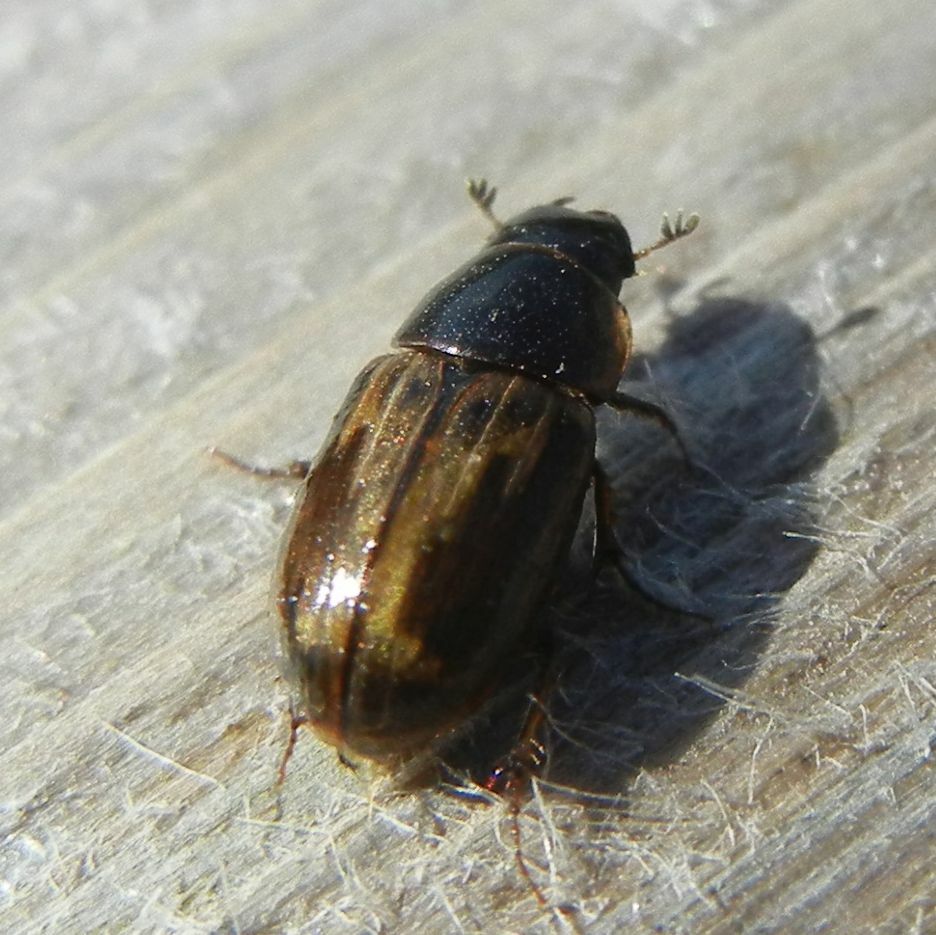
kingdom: Animalia
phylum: Arthropoda
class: Insecta
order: Coleoptera
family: Scarabaeidae
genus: Melinopterus
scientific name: Melinopterus prodromus
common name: Spring small dung beetle
